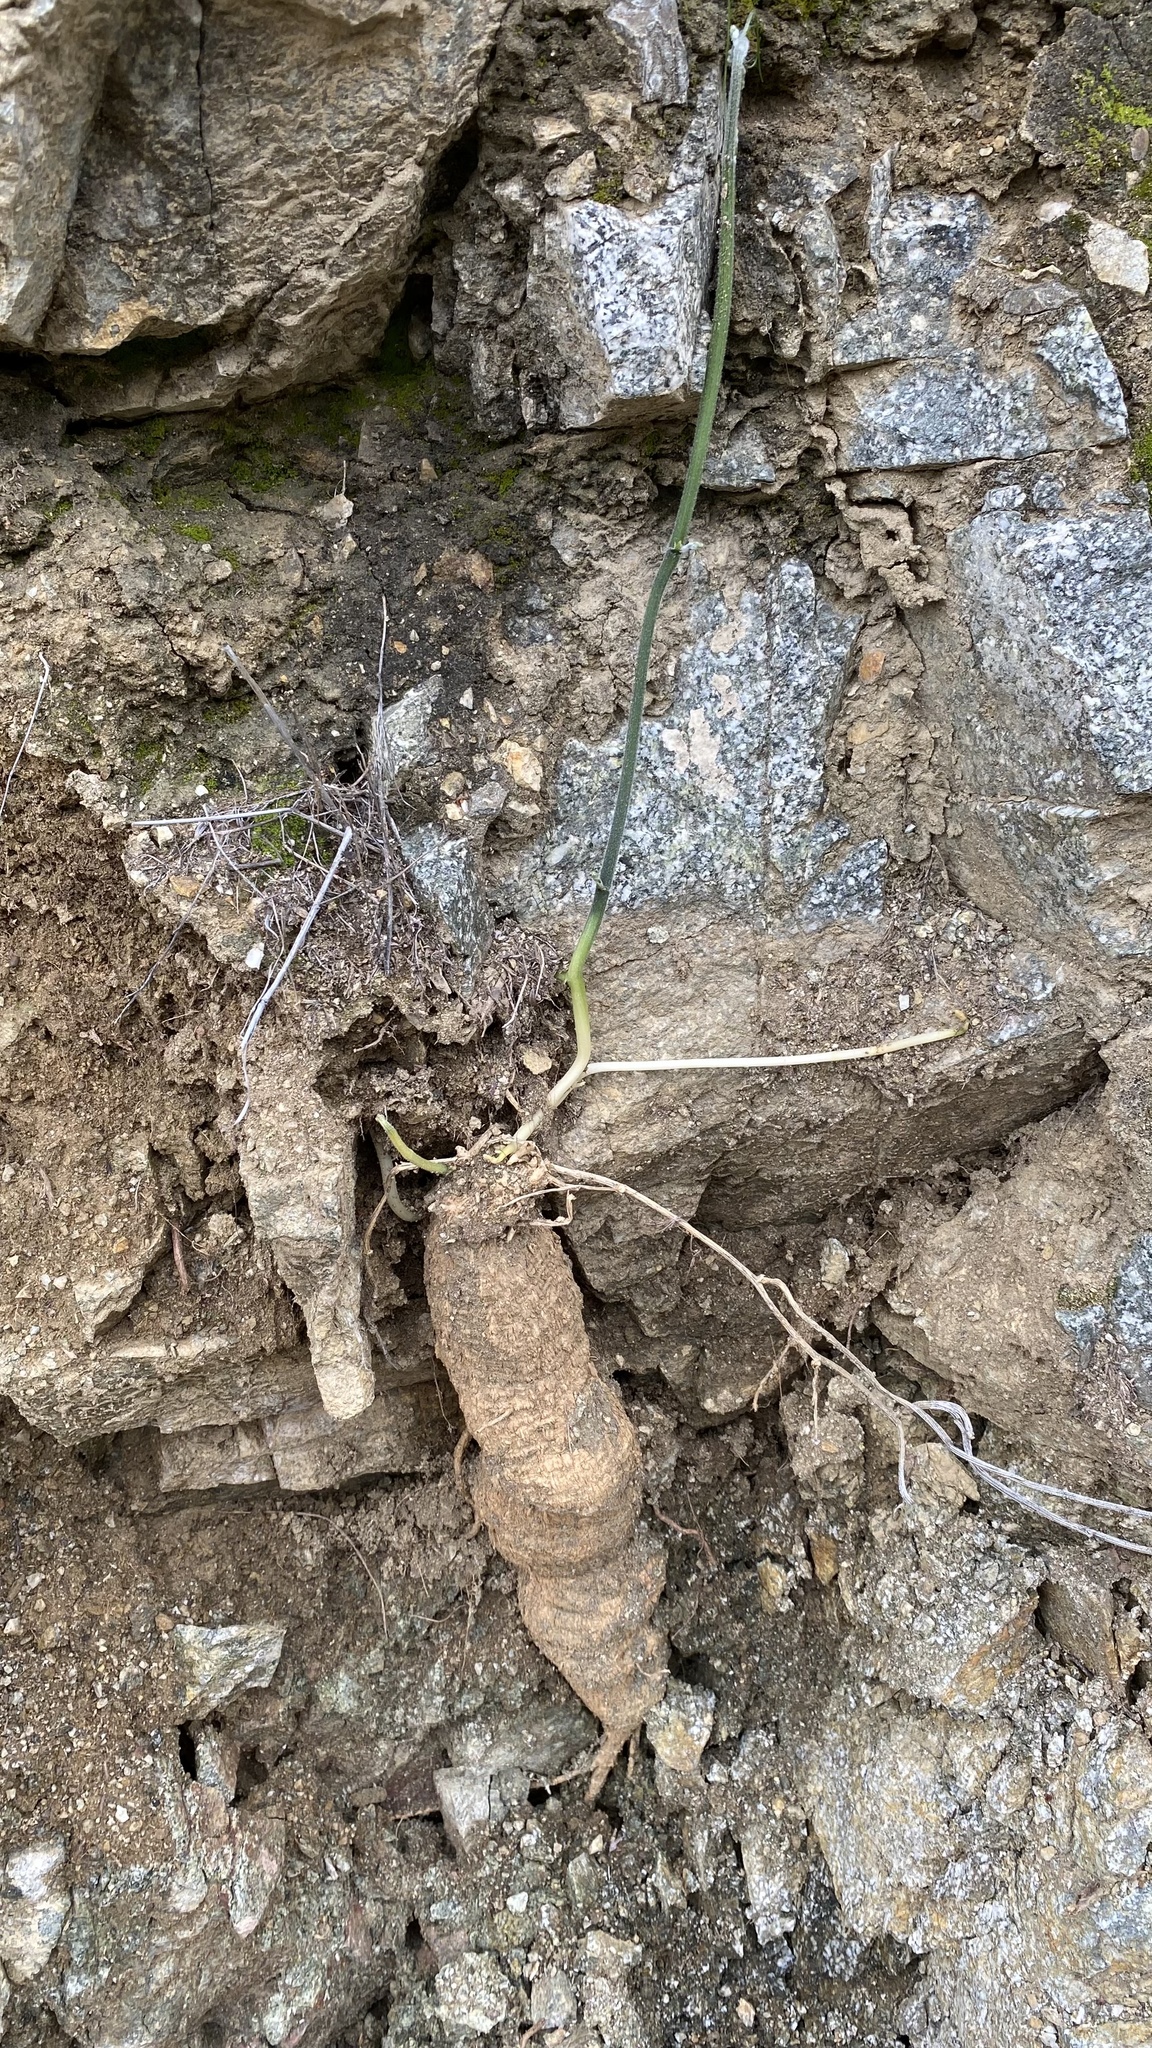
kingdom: Plantae
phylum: Tracheophyta
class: Magnoliopsida
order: Cucurbitales
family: Cucurbitaceae
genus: Marah
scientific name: Marah macrocarpa
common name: Cucamonga manroot
